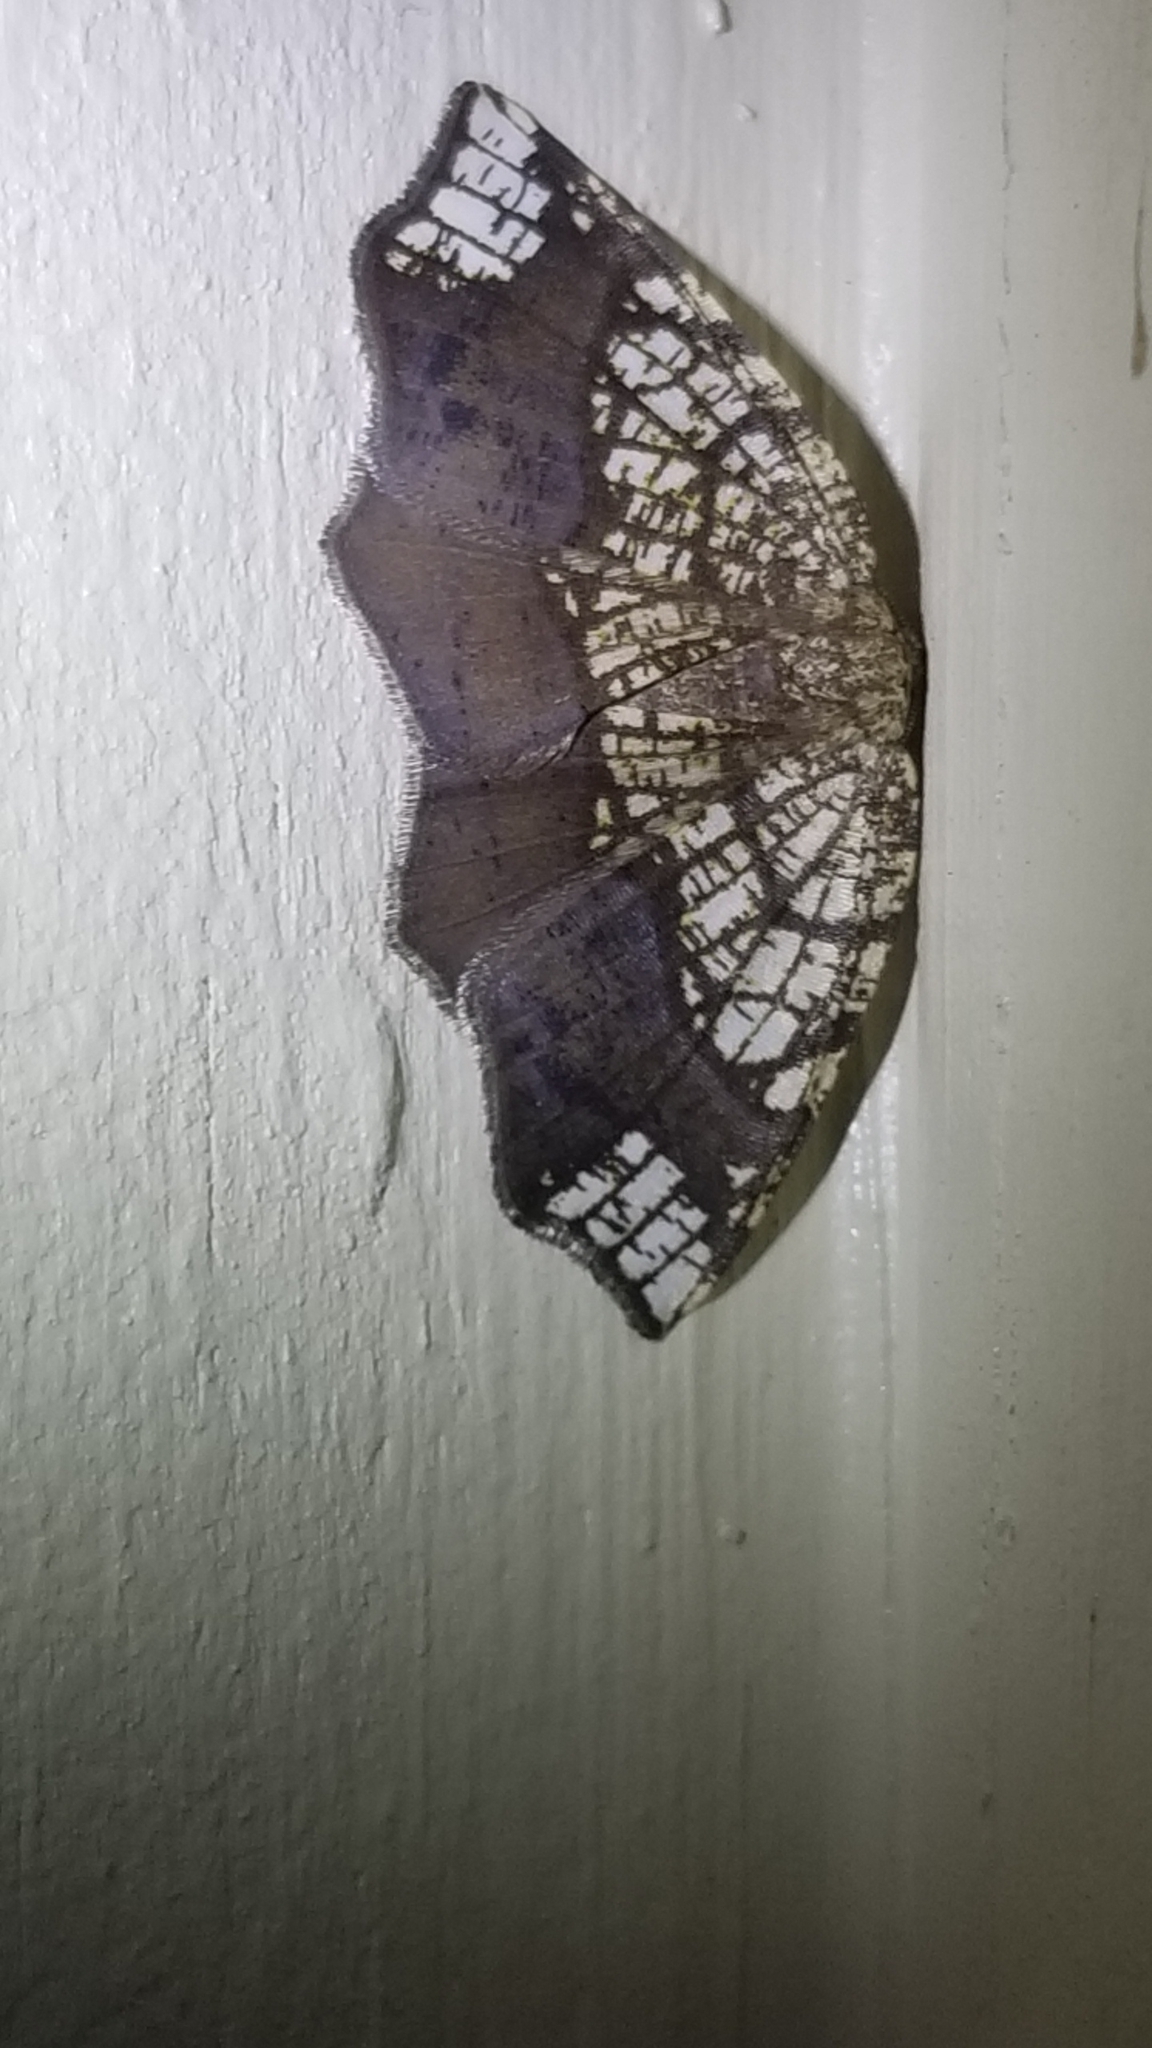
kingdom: Animalia
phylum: Arthropoda
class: Insecta
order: Lepidoptera
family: Geometridae
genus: Nematocampa
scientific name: Nematocampa resistaria
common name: Horned spanworm moth
